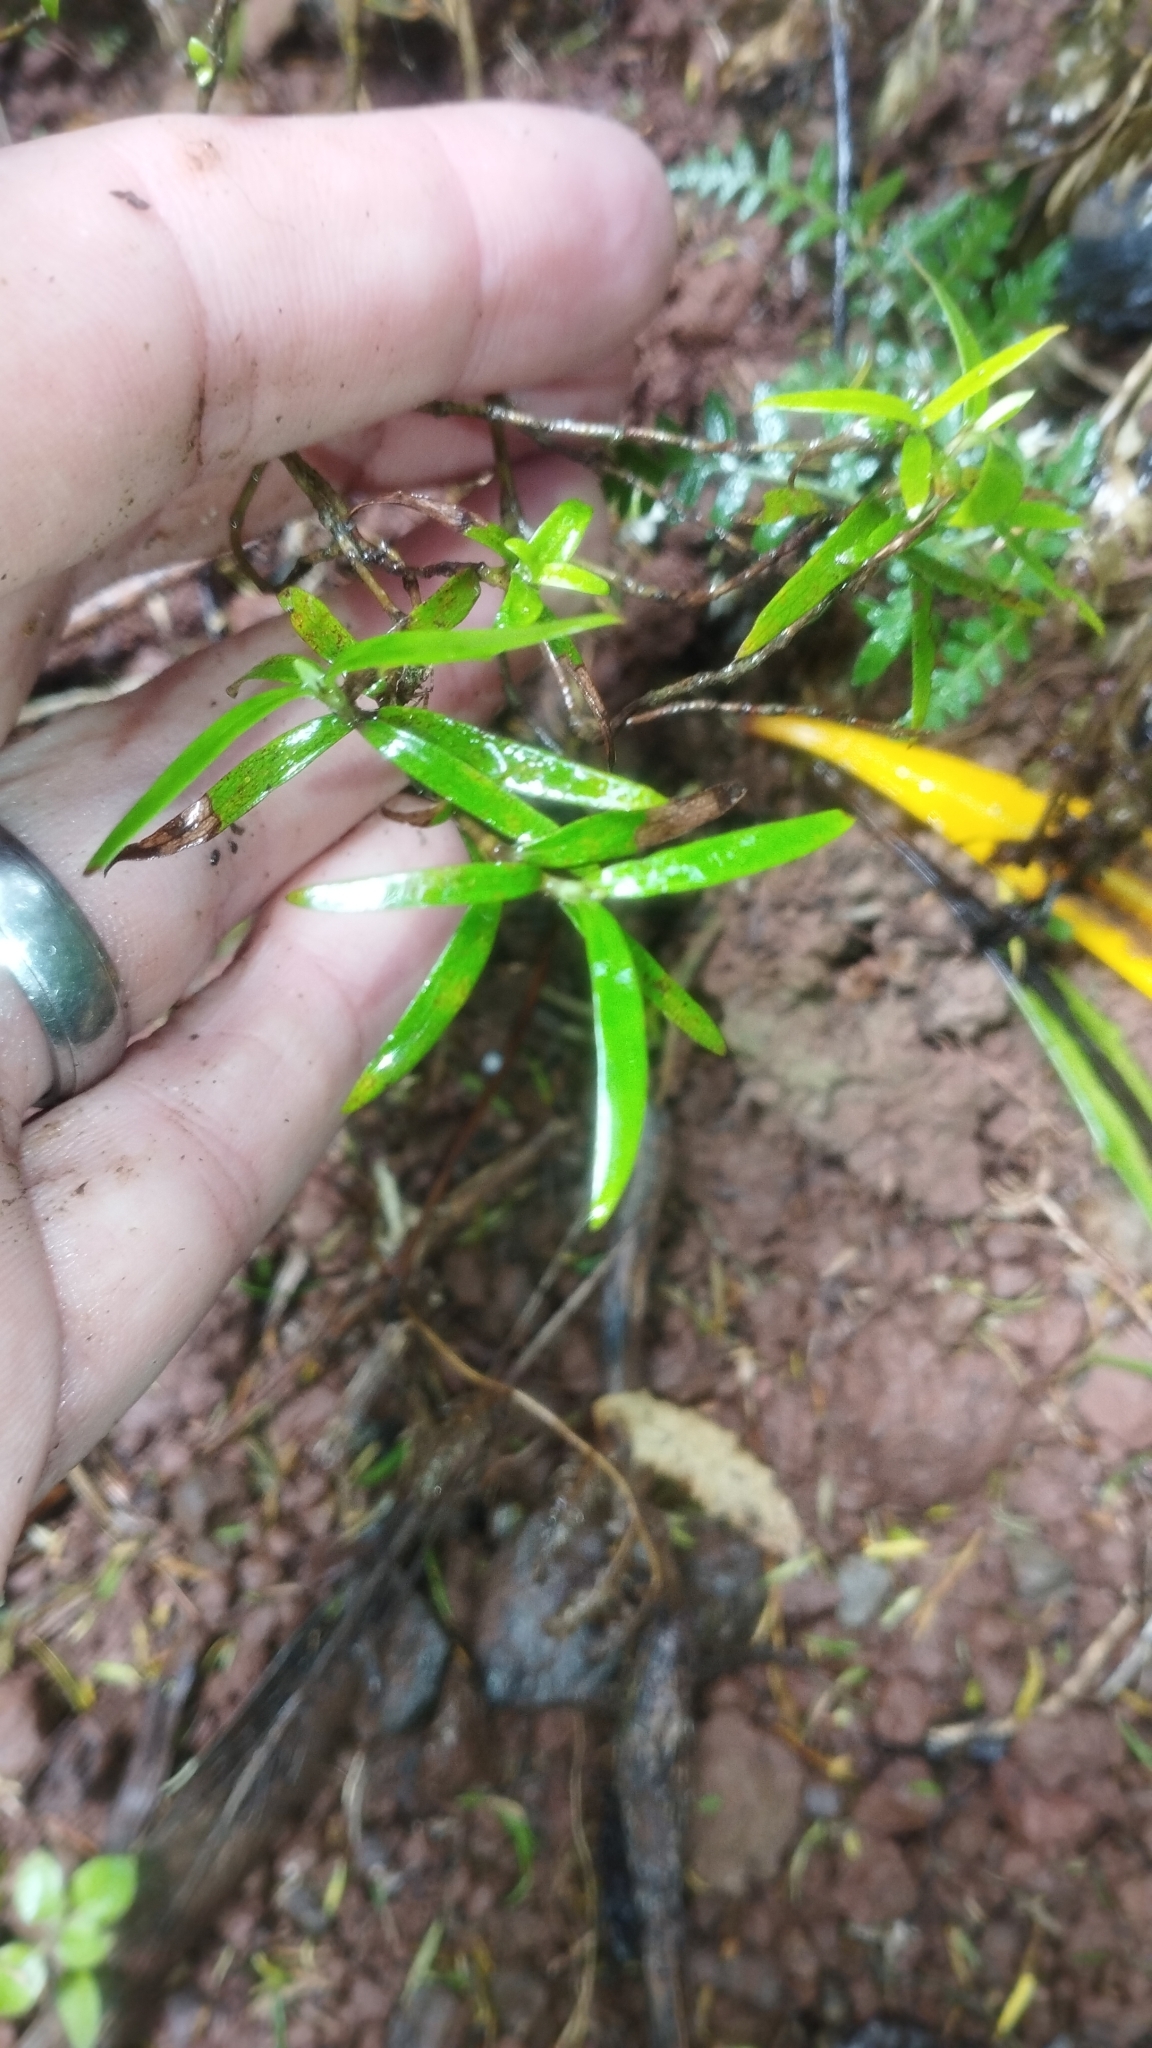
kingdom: Plantae
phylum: Tracheophyta
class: Magnoliopsida
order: Gentianales
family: Rubiaceae
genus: Coprosma
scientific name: Coprosma linariifolia
